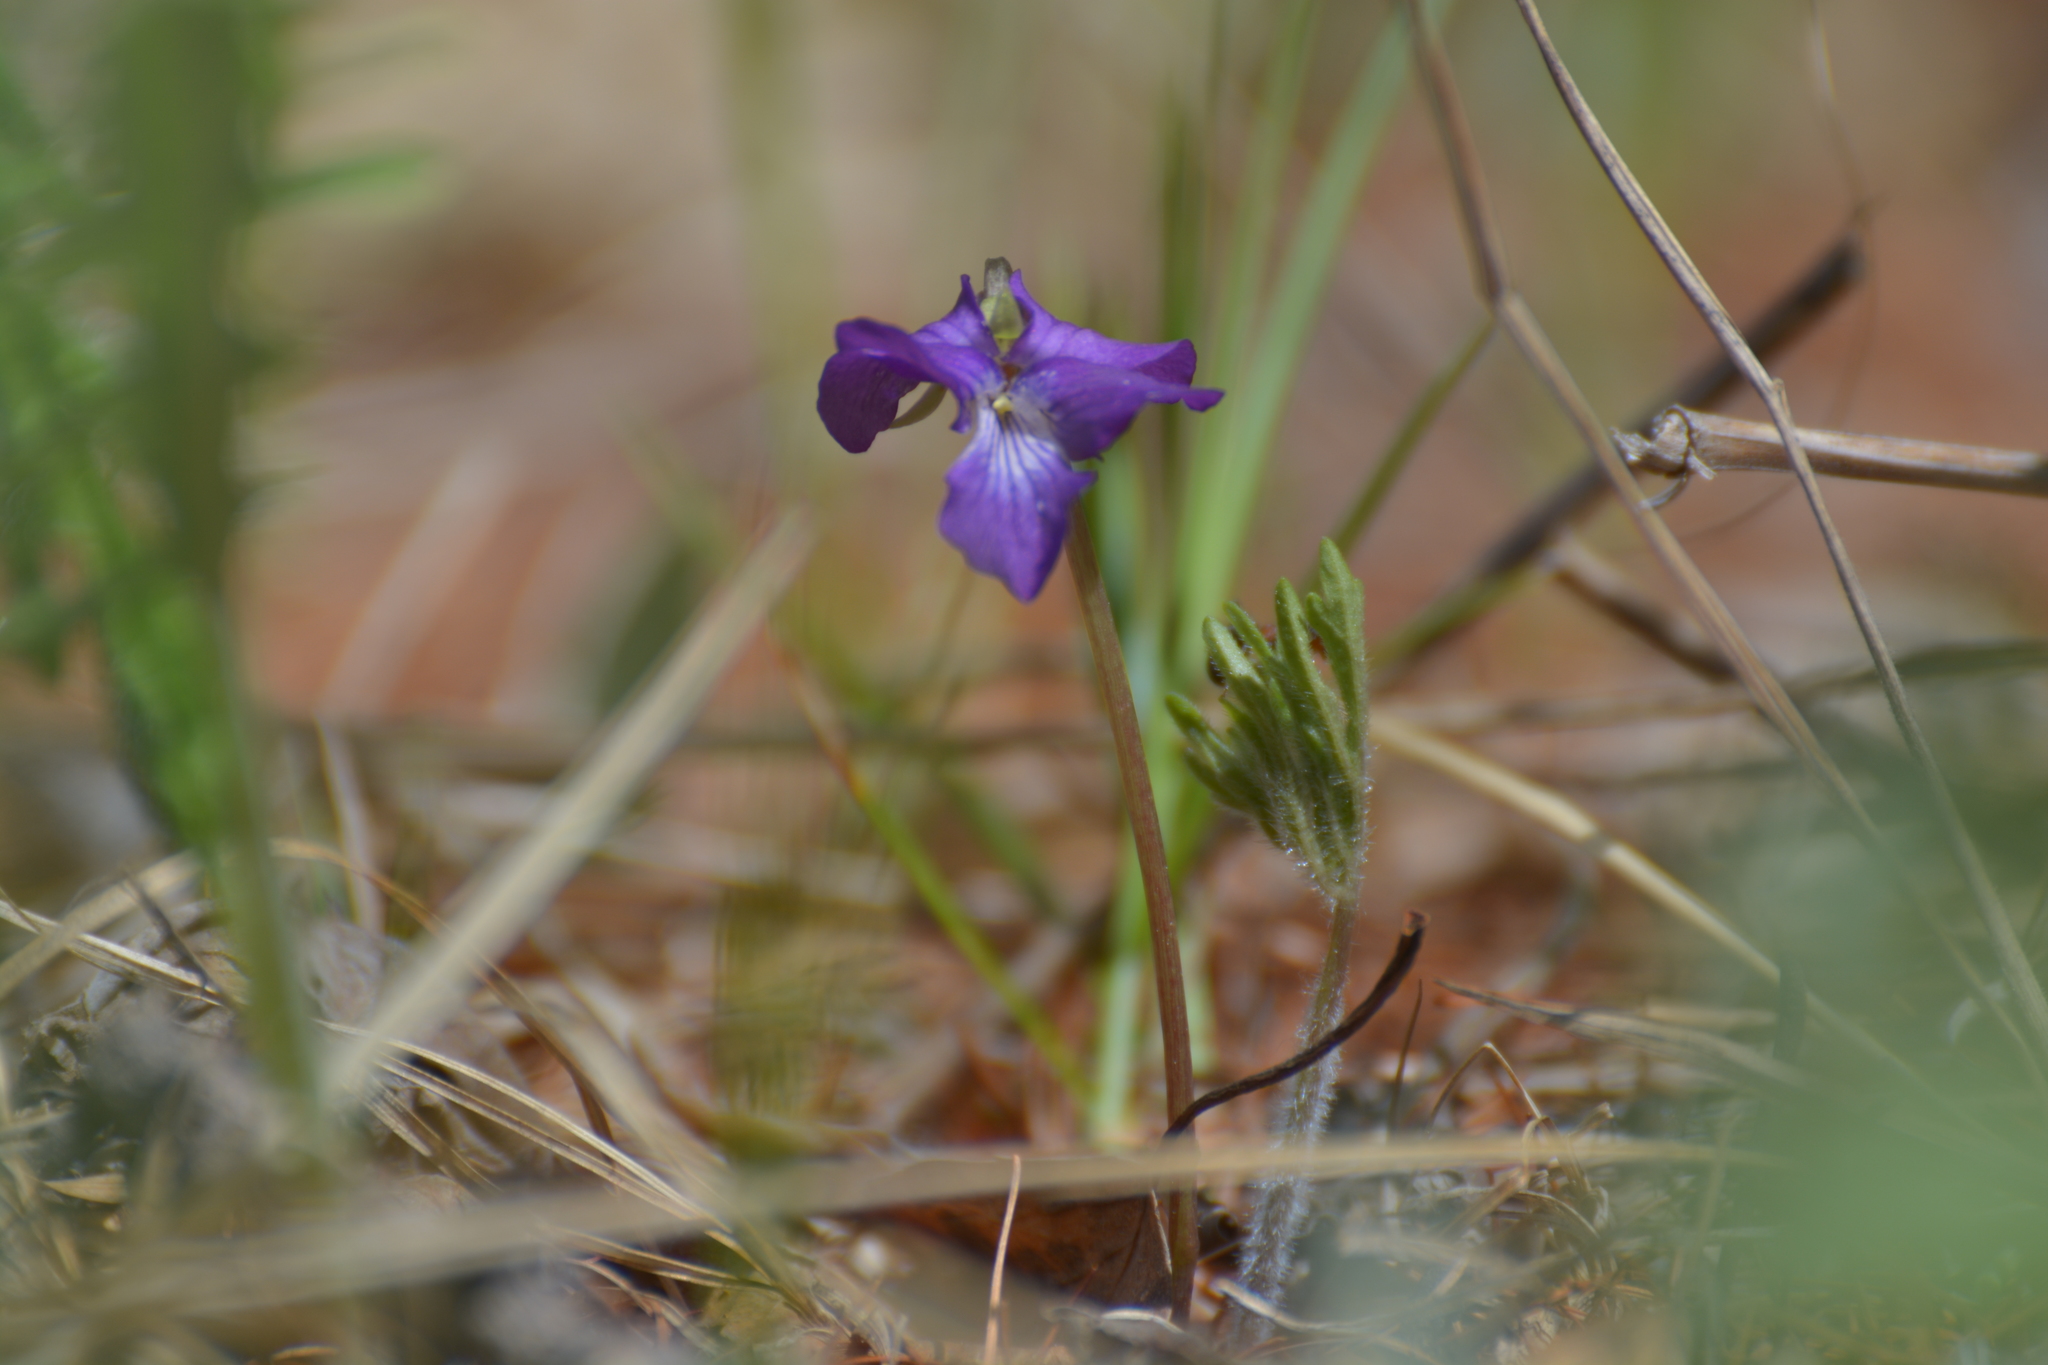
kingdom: Plantae
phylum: Tracheophyta
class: Magnoliopsida
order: Malpighiales
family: Violaceae
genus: Viola
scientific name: Viola multifida
